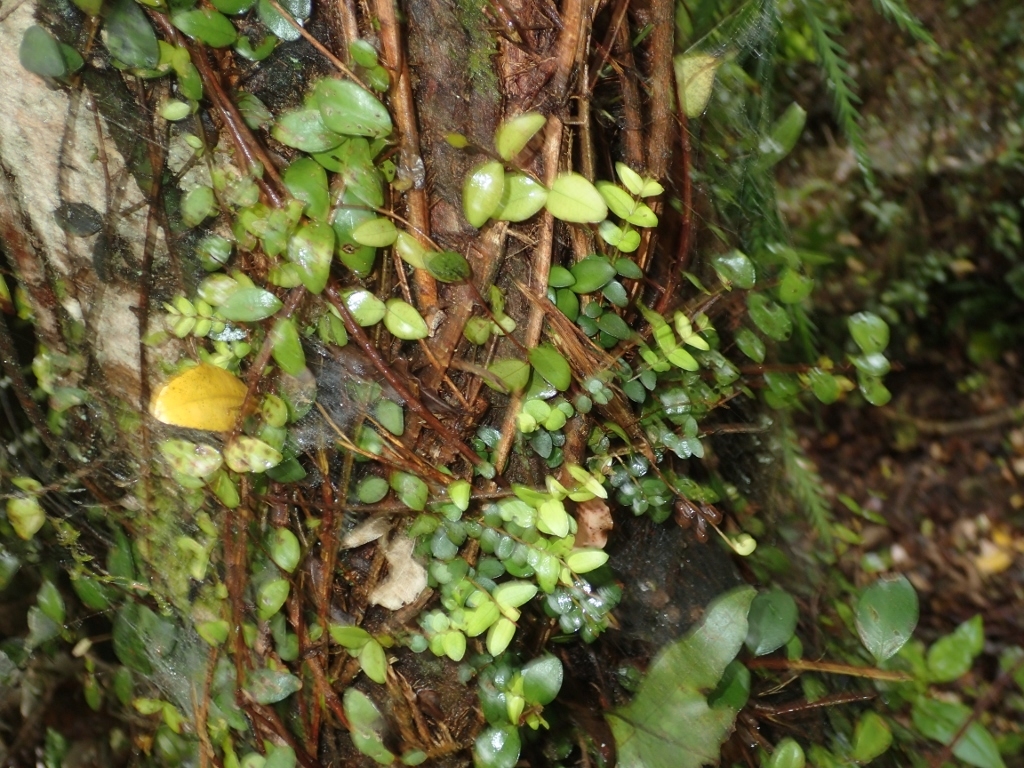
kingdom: Plantae
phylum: Tracheophyta
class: Magnoliopsida
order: Myrtales
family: Myrtaceae
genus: Metrosideros
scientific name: Metrosideros diffusa
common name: Small ratavine
